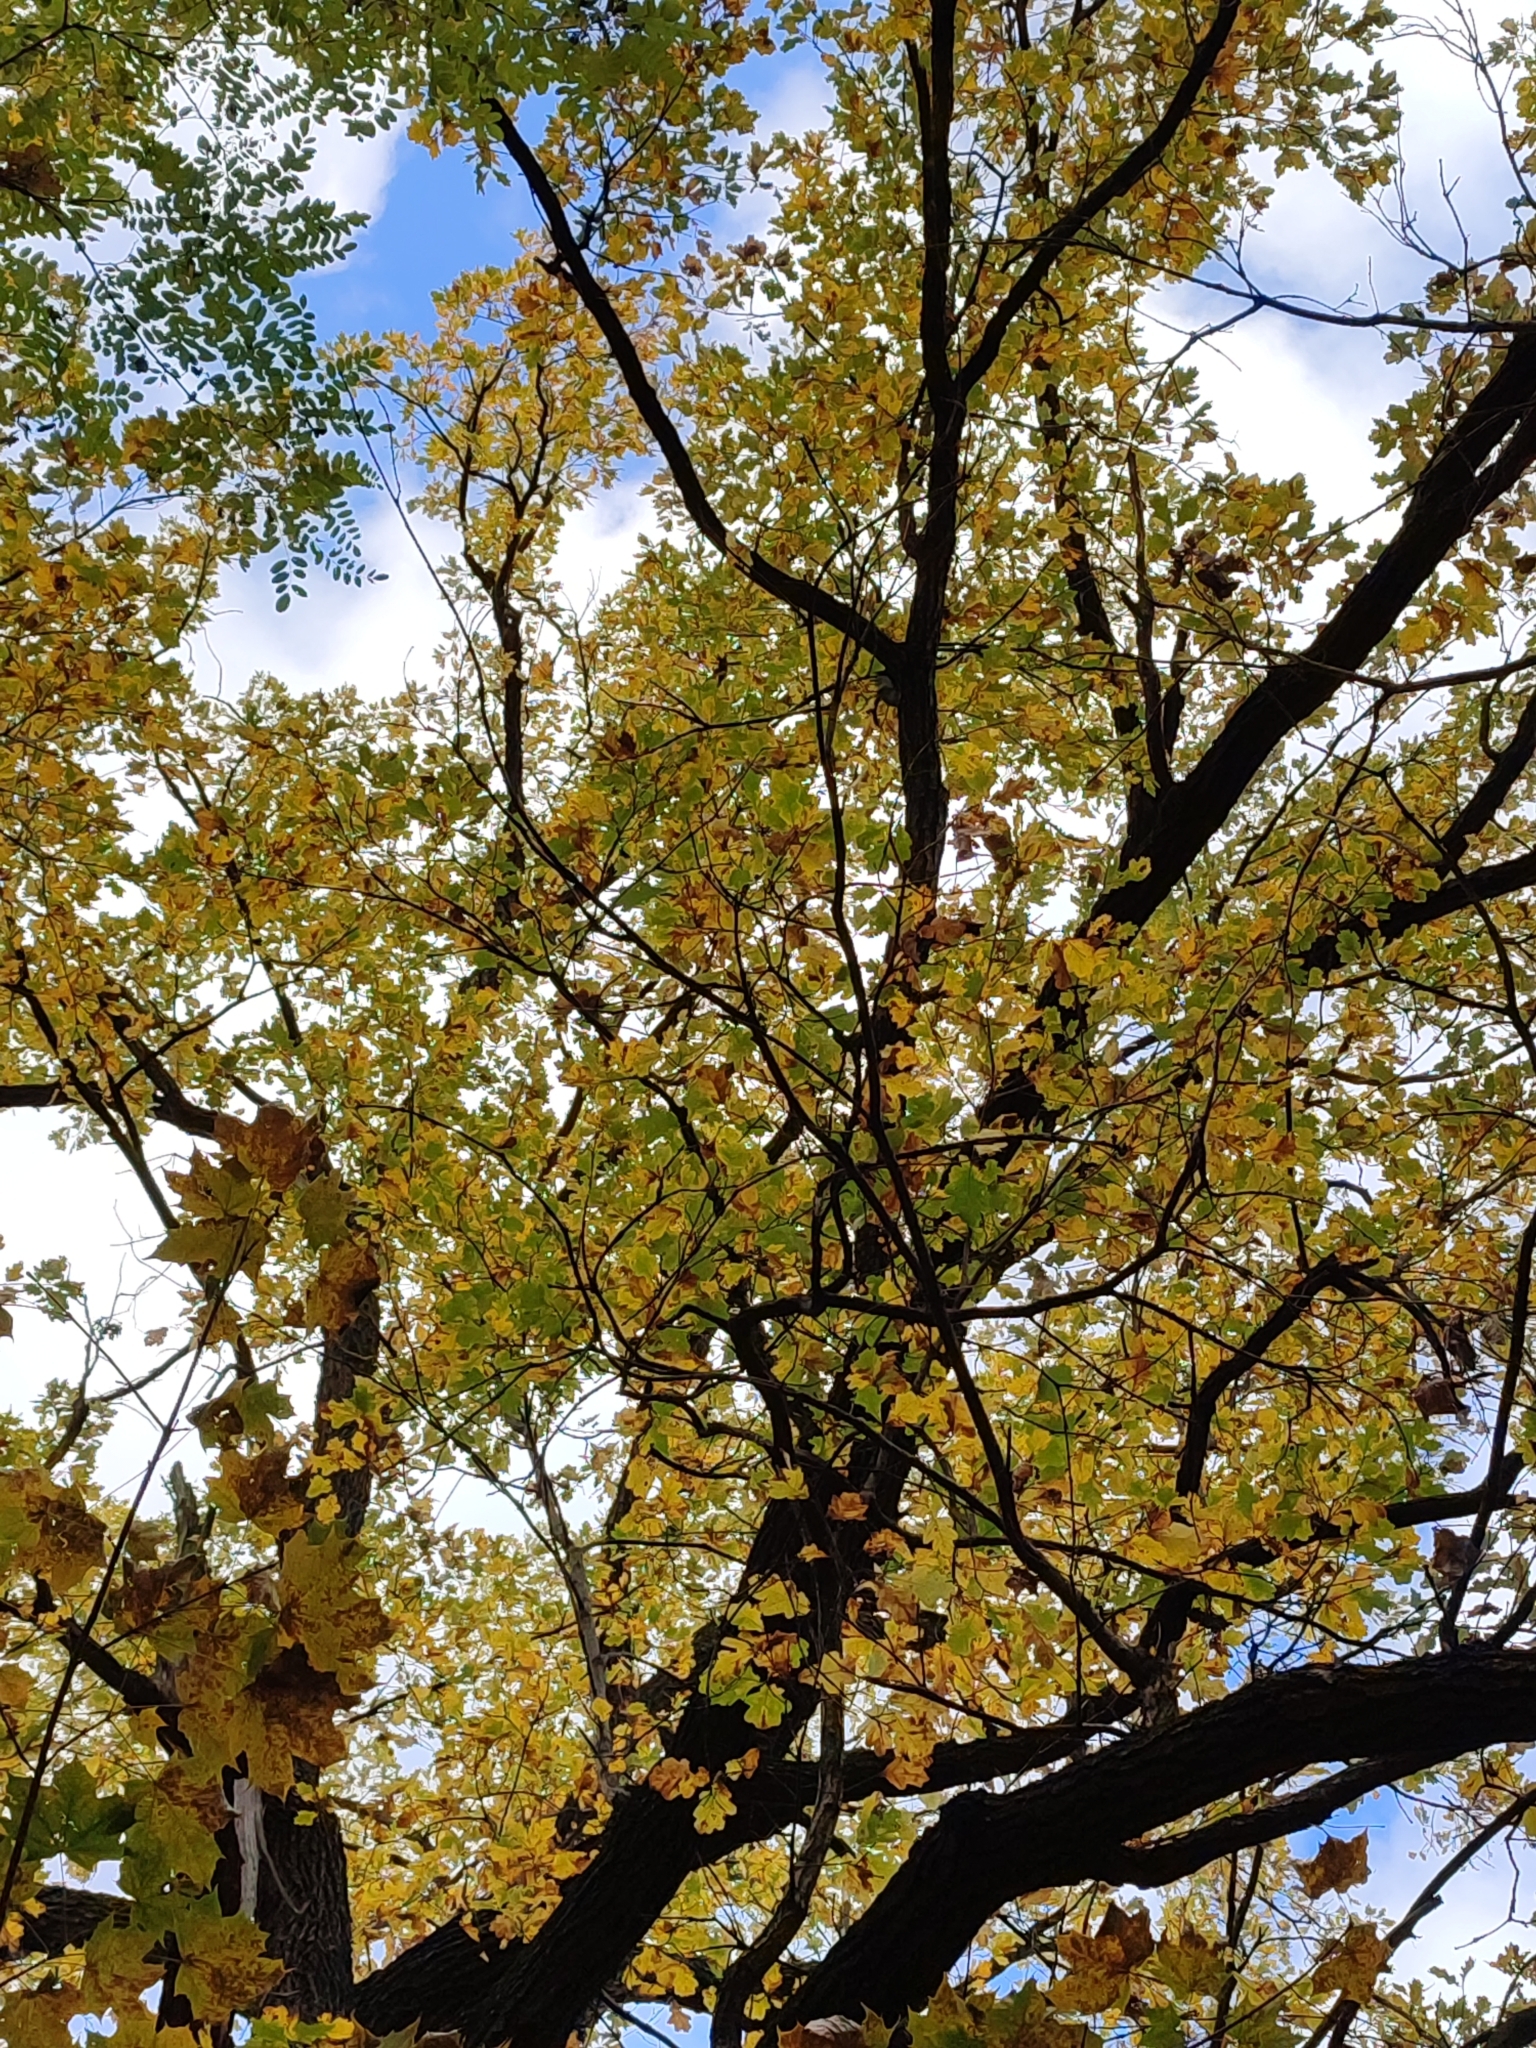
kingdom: Plantae
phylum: Tracheophyta
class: Magnoliopsida
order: Fagales
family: Fagaceae
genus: Quercus
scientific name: Quercus robur
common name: Pedunculate oak
